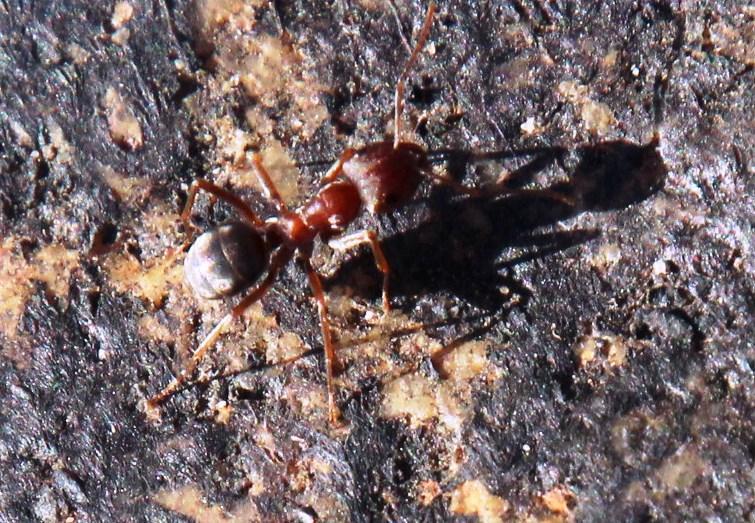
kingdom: Animalia
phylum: Arthropoda
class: Insecta
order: Hymenoptera
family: Formicidae
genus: Anoplolepis
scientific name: Anoplolepis custodiens
